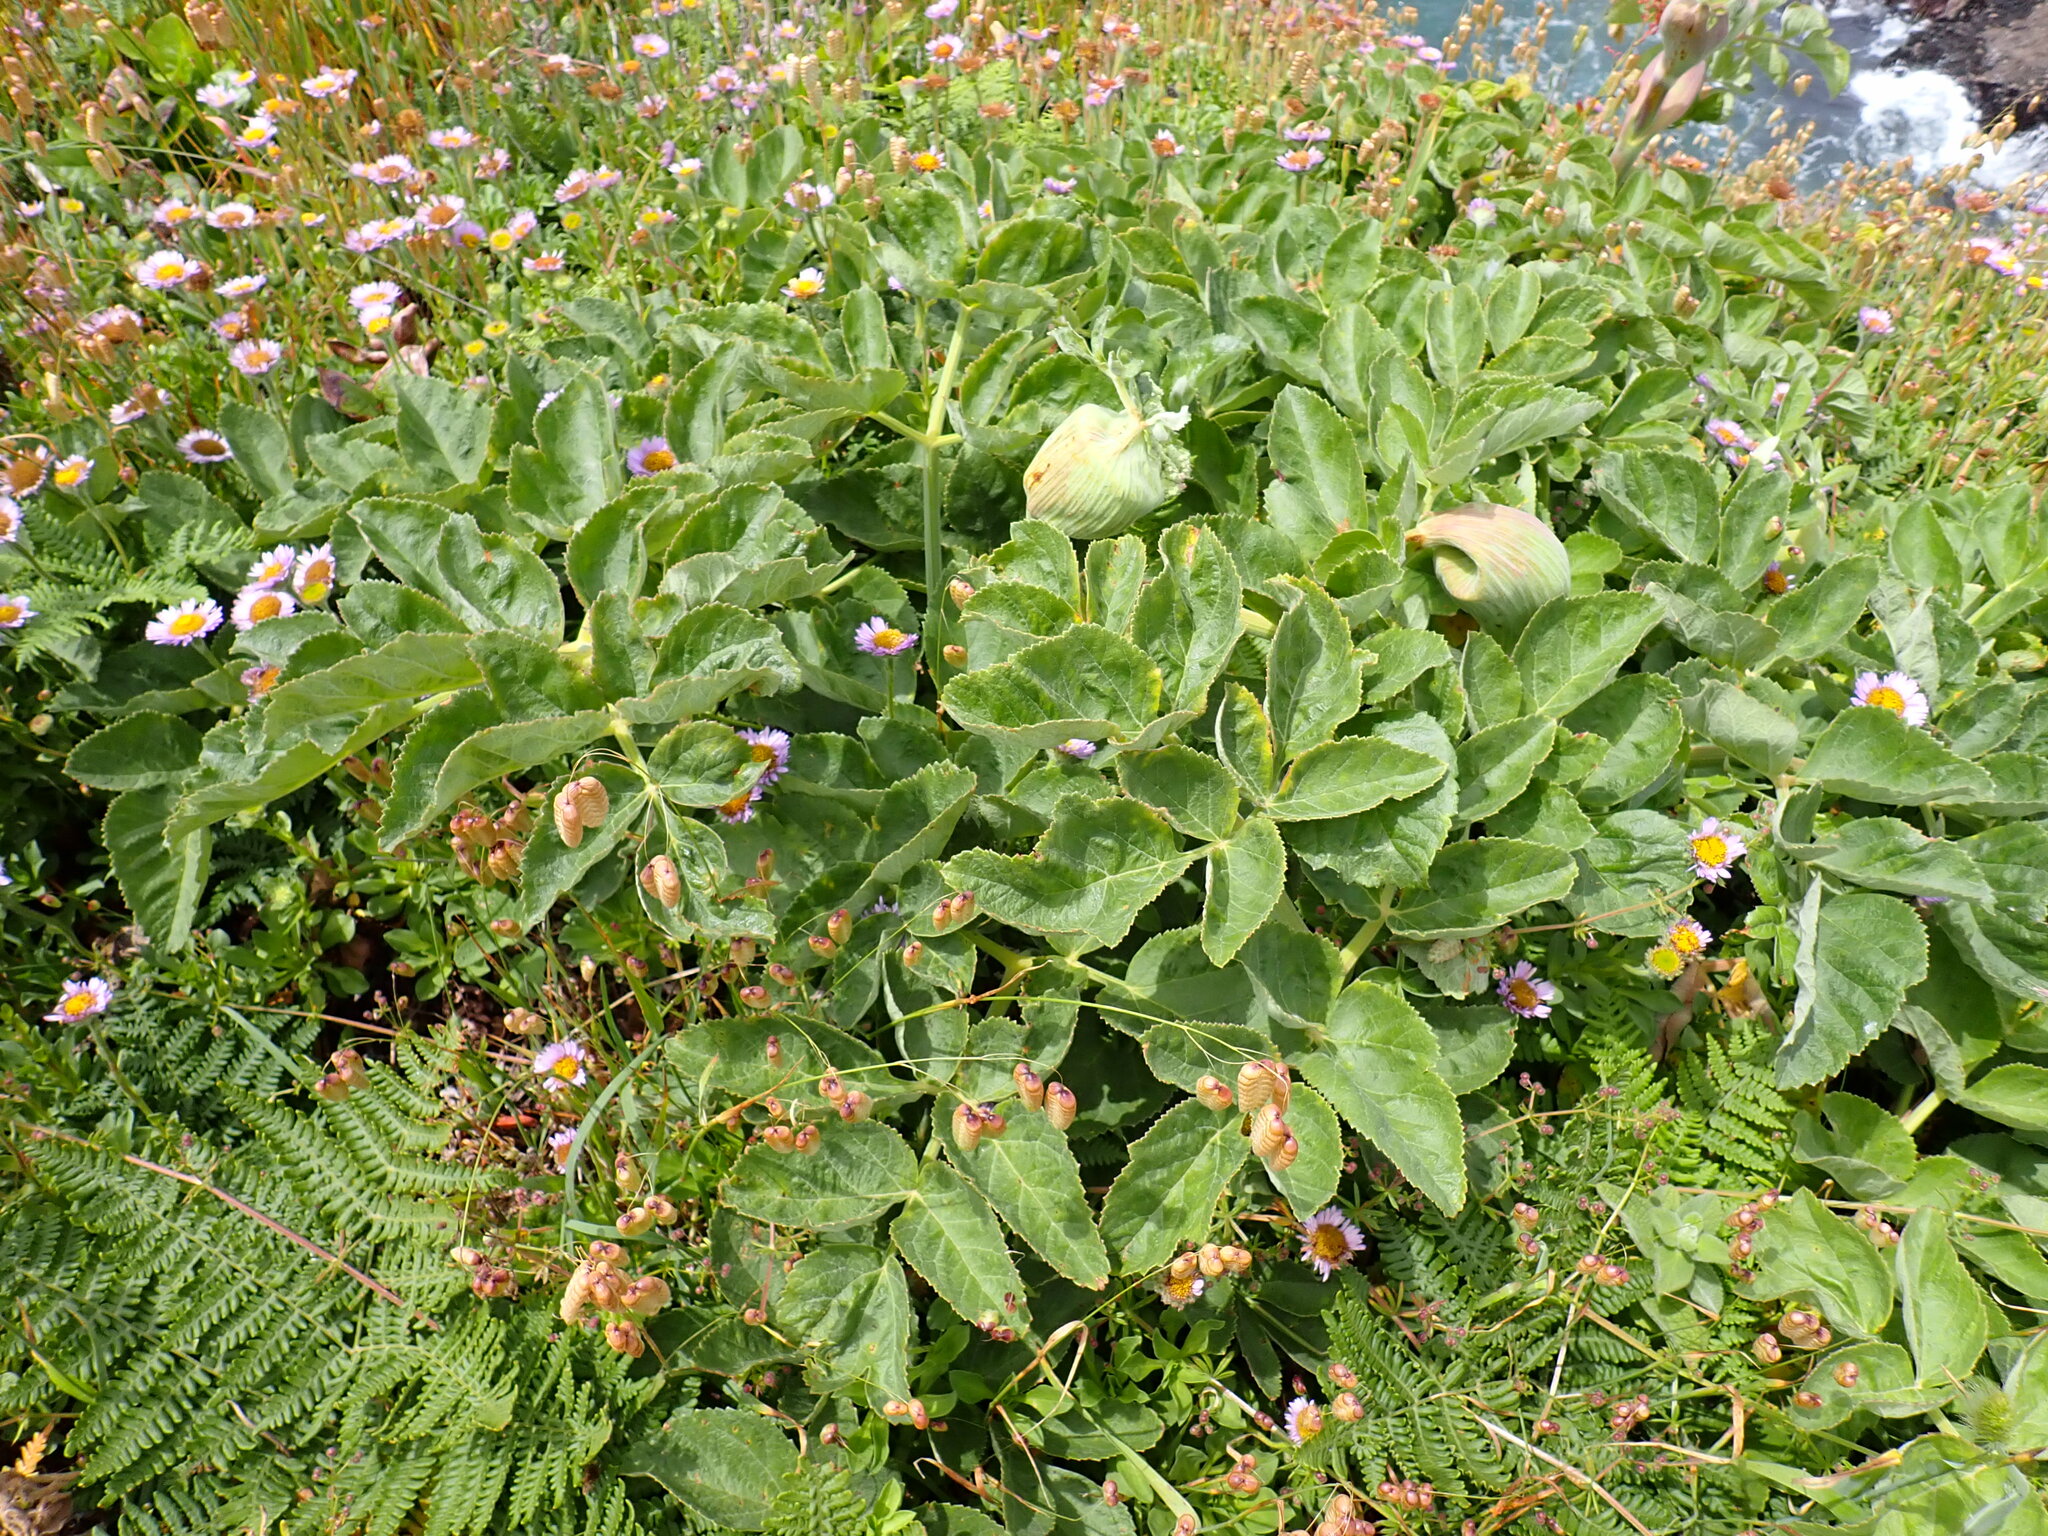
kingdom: Plantae
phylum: Tracheophyta
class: Magnoliopsida
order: Apiales
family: Apiaceae
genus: Angelica
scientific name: Angelica hendersonii
